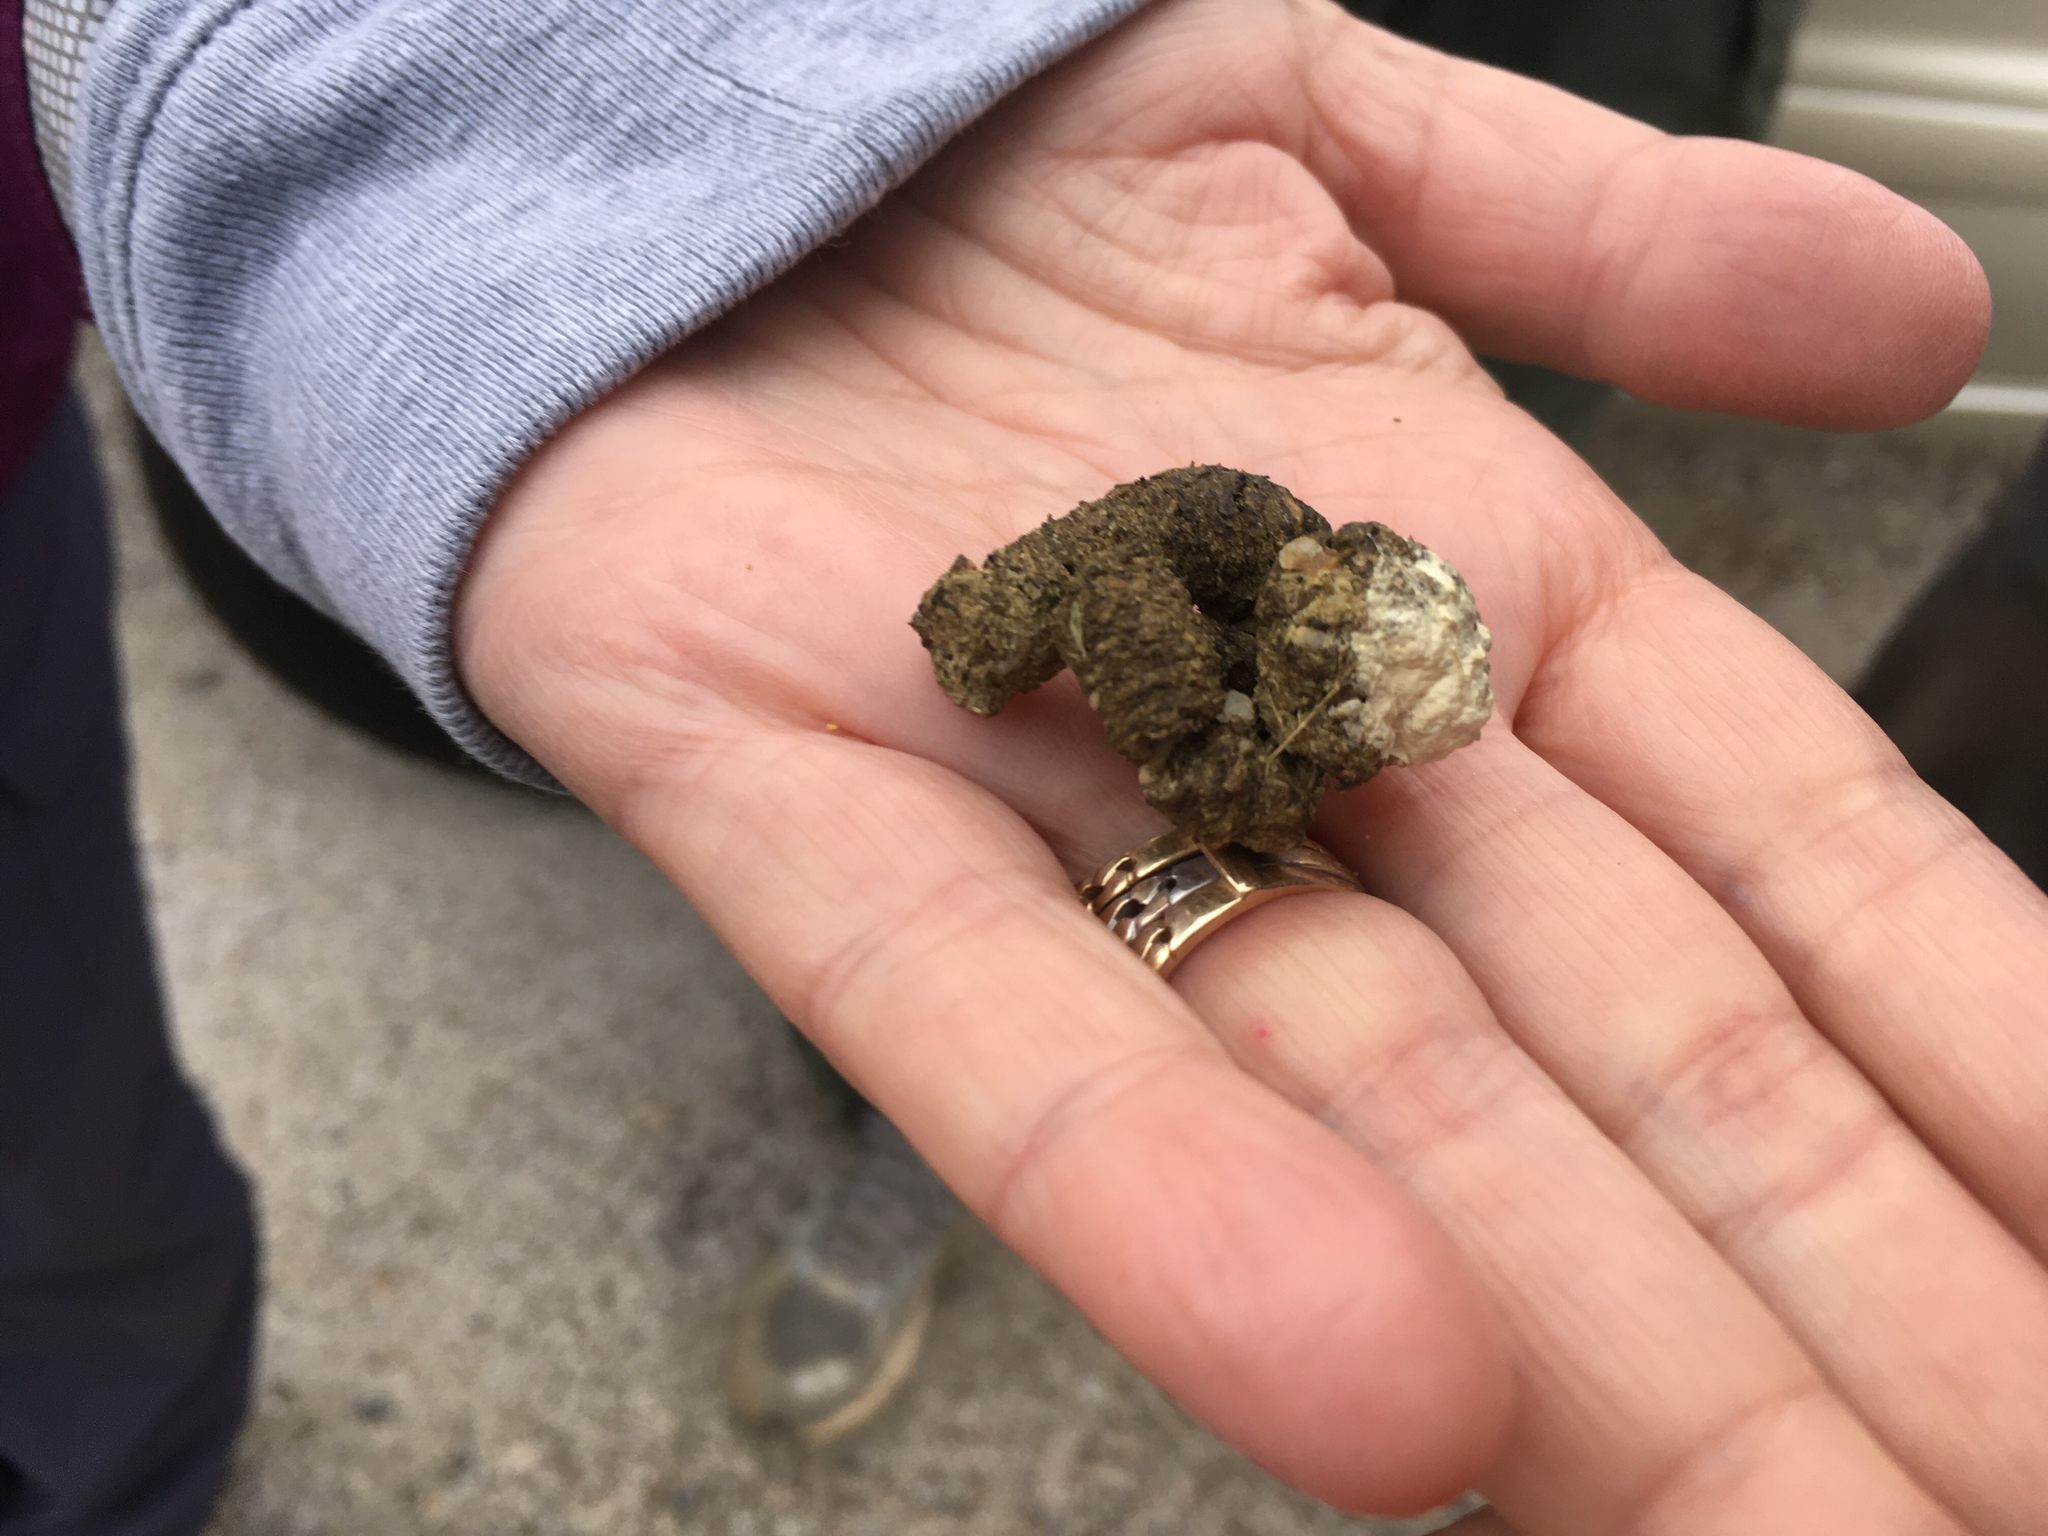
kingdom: Animalia
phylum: Chordata
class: Aves
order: Cuculiformes
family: Cuculidae
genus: Geococcyx
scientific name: Geococcyx californianus
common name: Greater roadrunner
